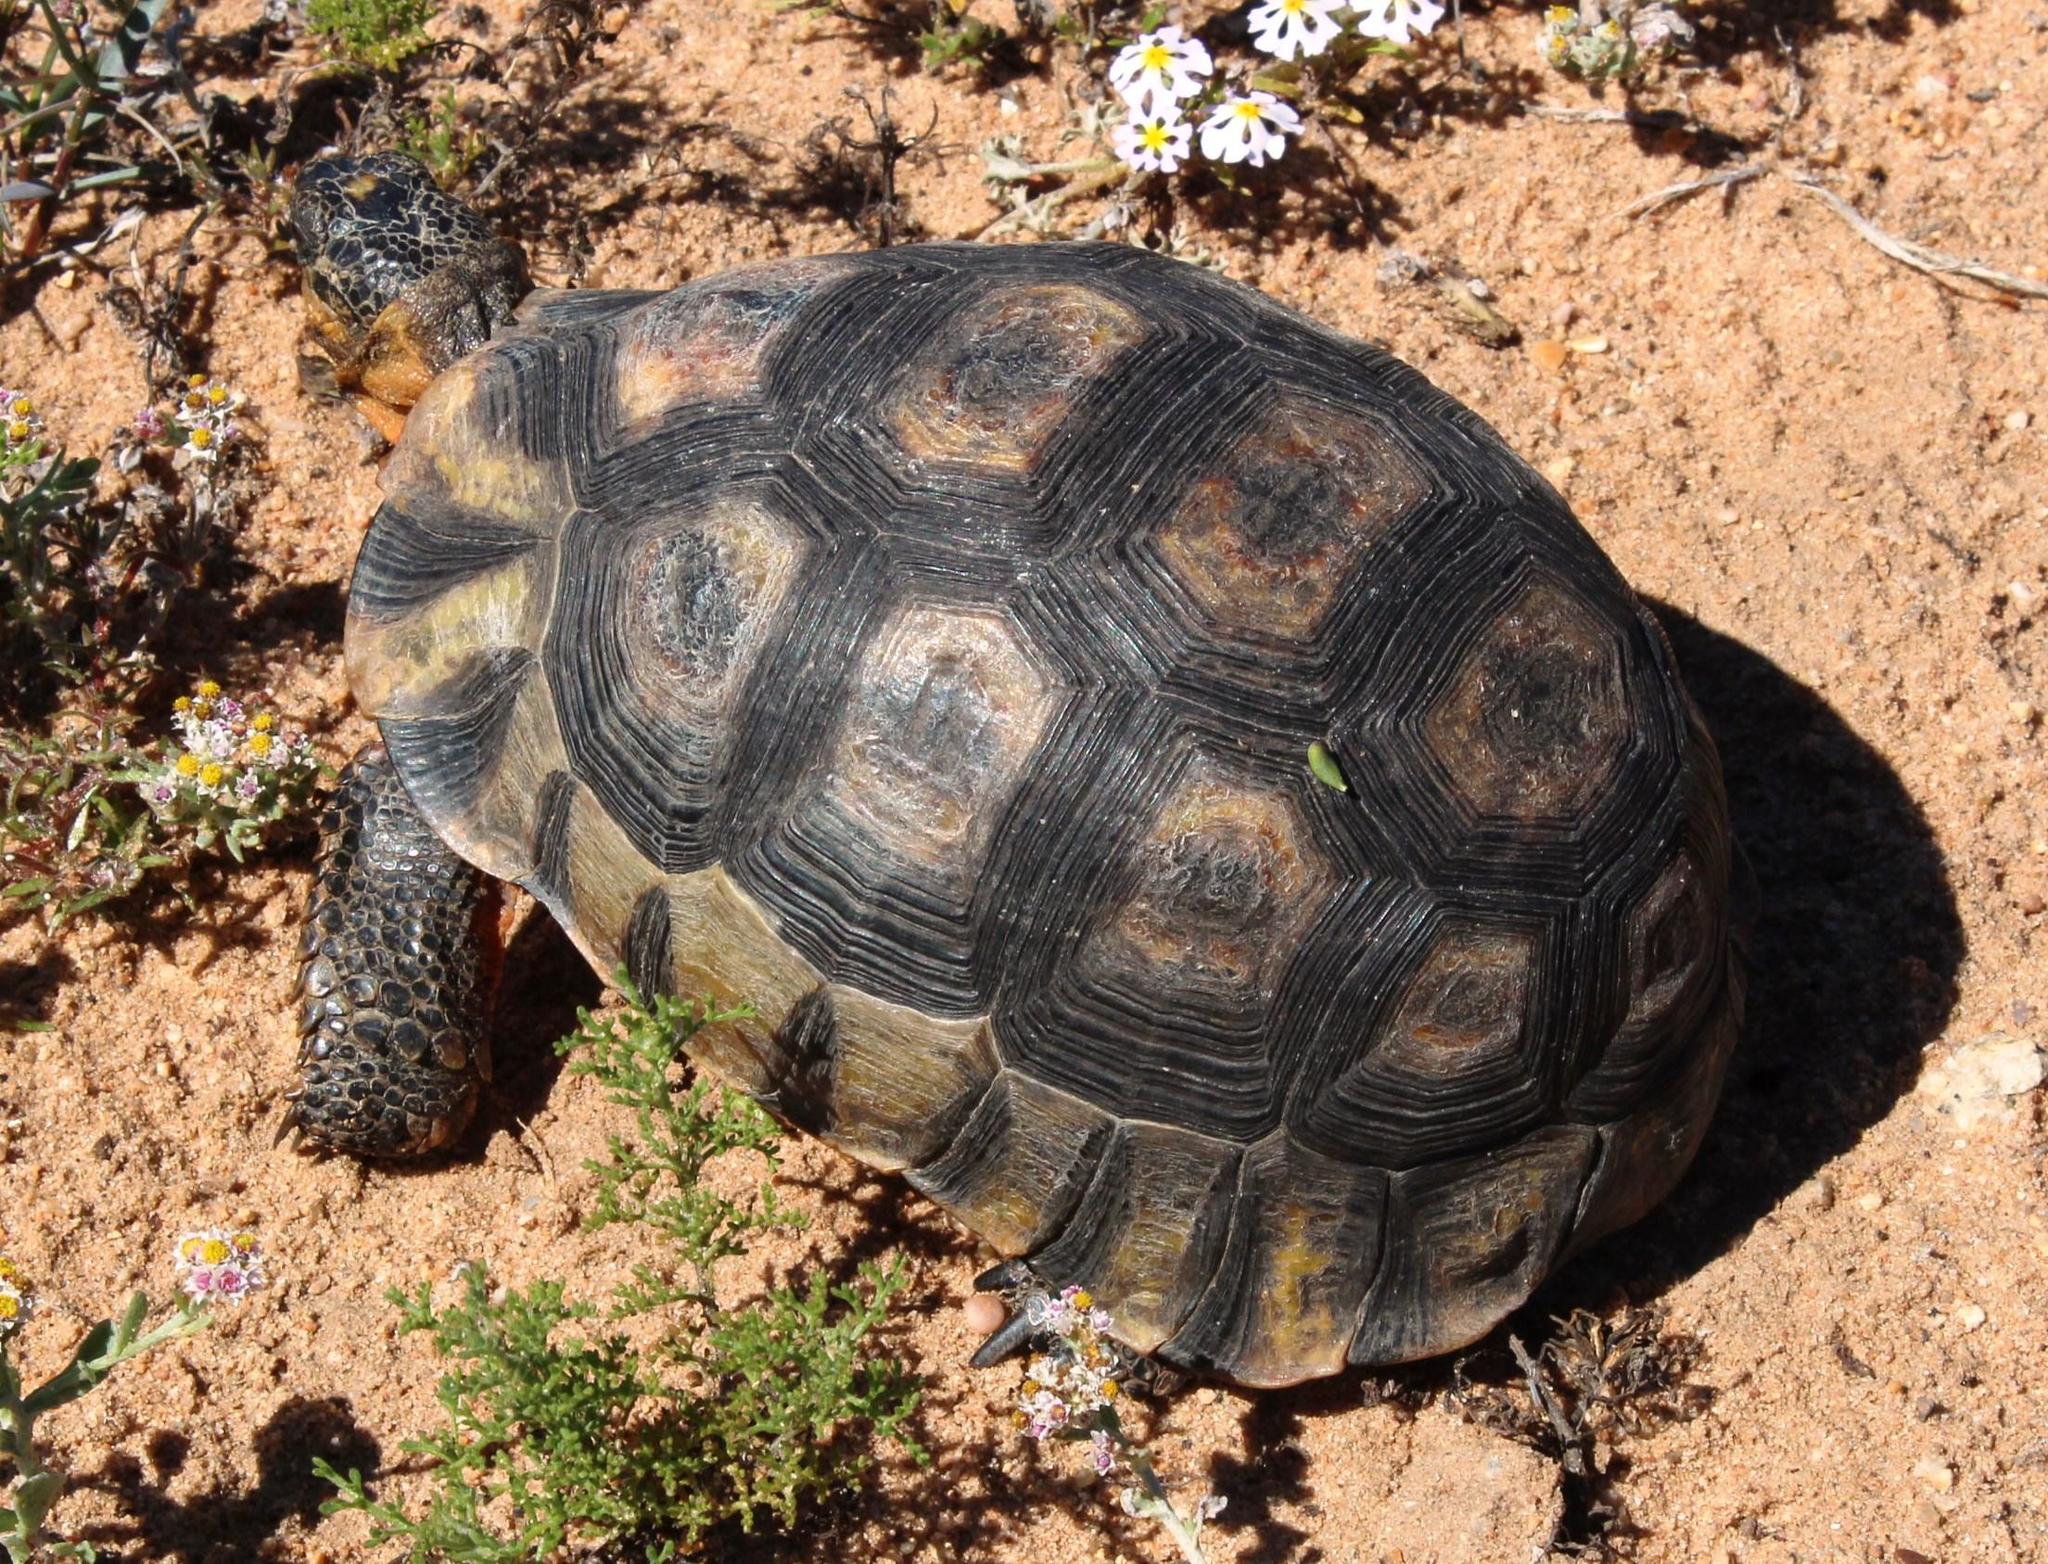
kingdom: Animalia
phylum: Chordata
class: Testudines
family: Testudinidae
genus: Chersina
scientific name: Chersina angulata
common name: South african bowsprit tortoise
